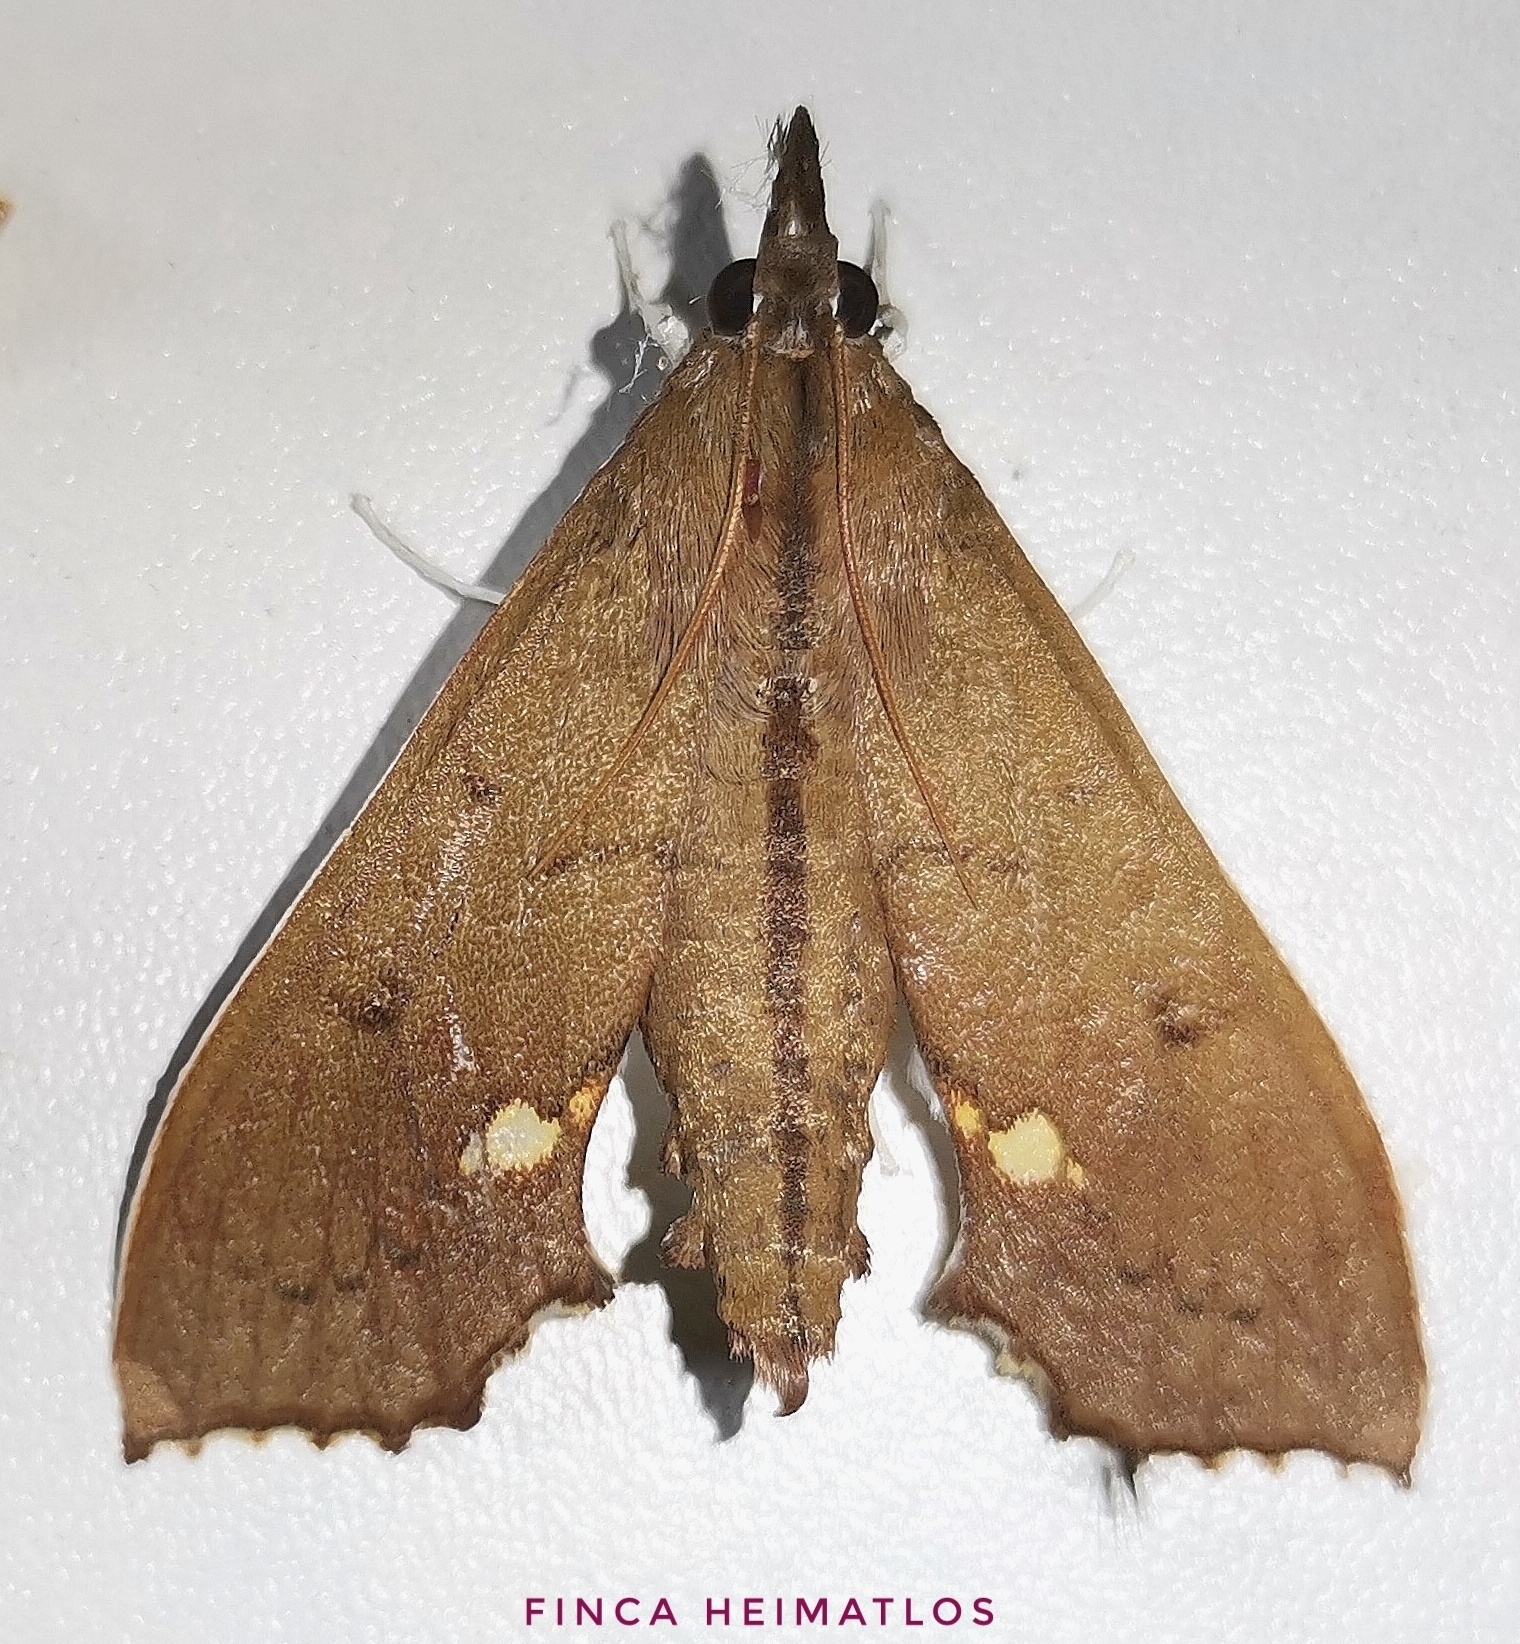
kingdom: Animalia
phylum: Arthropoda
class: Insecta
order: Lepidoptera
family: Crambidae
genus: Liopasia
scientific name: Liopasia andrealis
